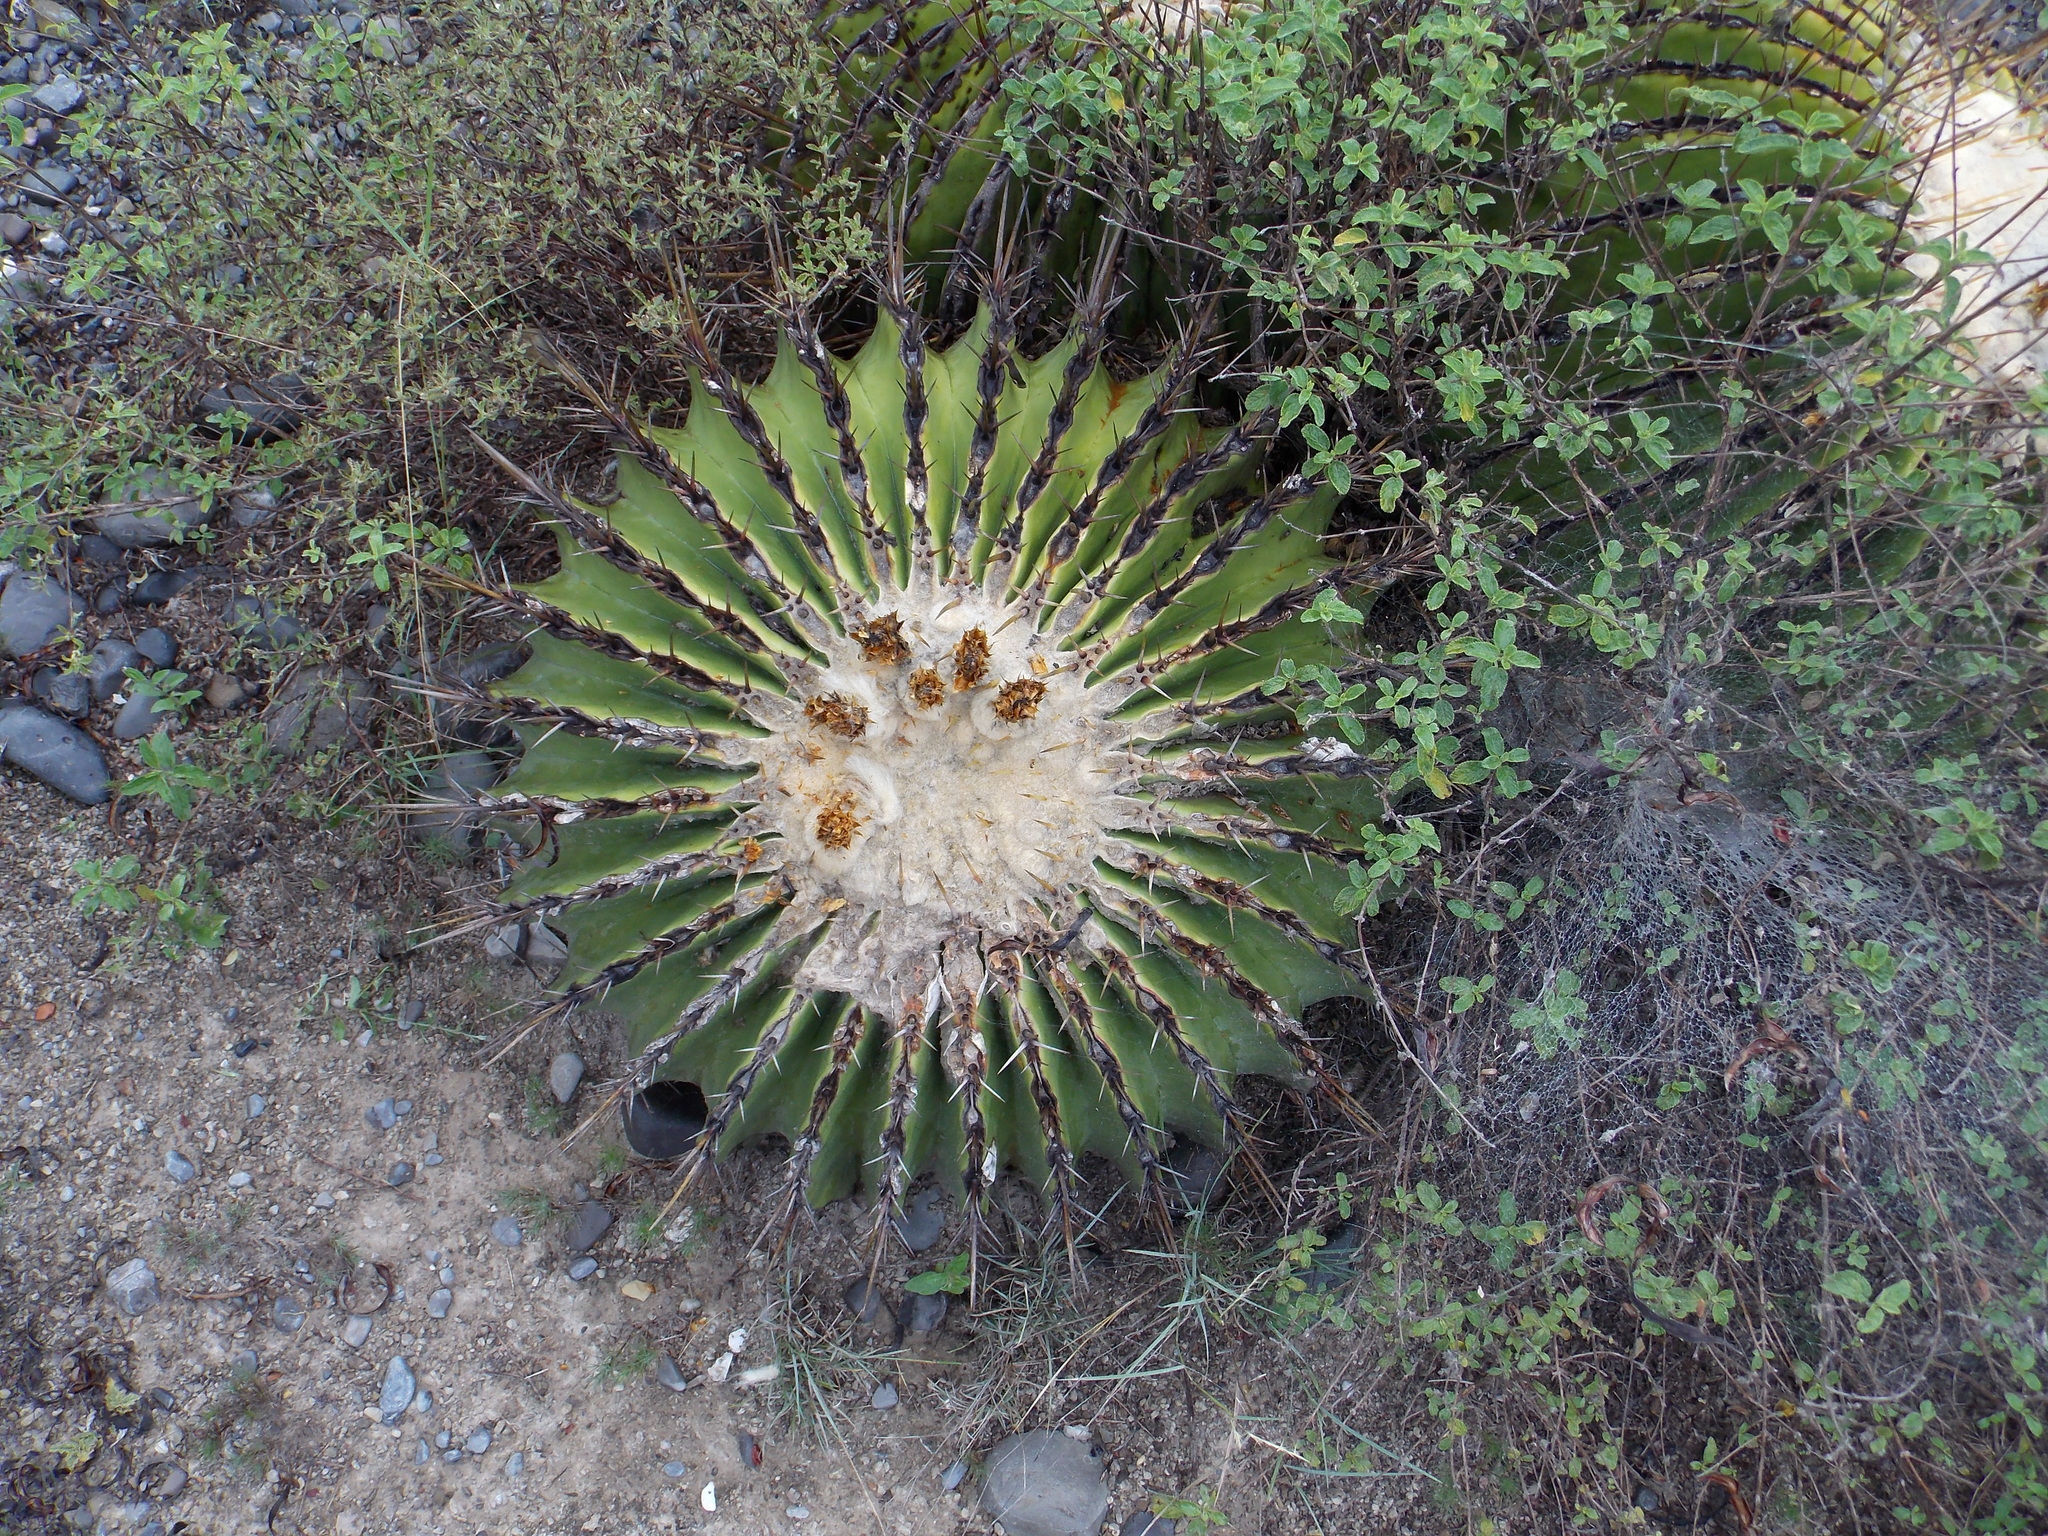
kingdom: Plantae
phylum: Tracheophyta
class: Magnoliopsida
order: Caryophyllales
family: Cactaceae
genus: Echinocactus
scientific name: Echinocactus platyacanthus
